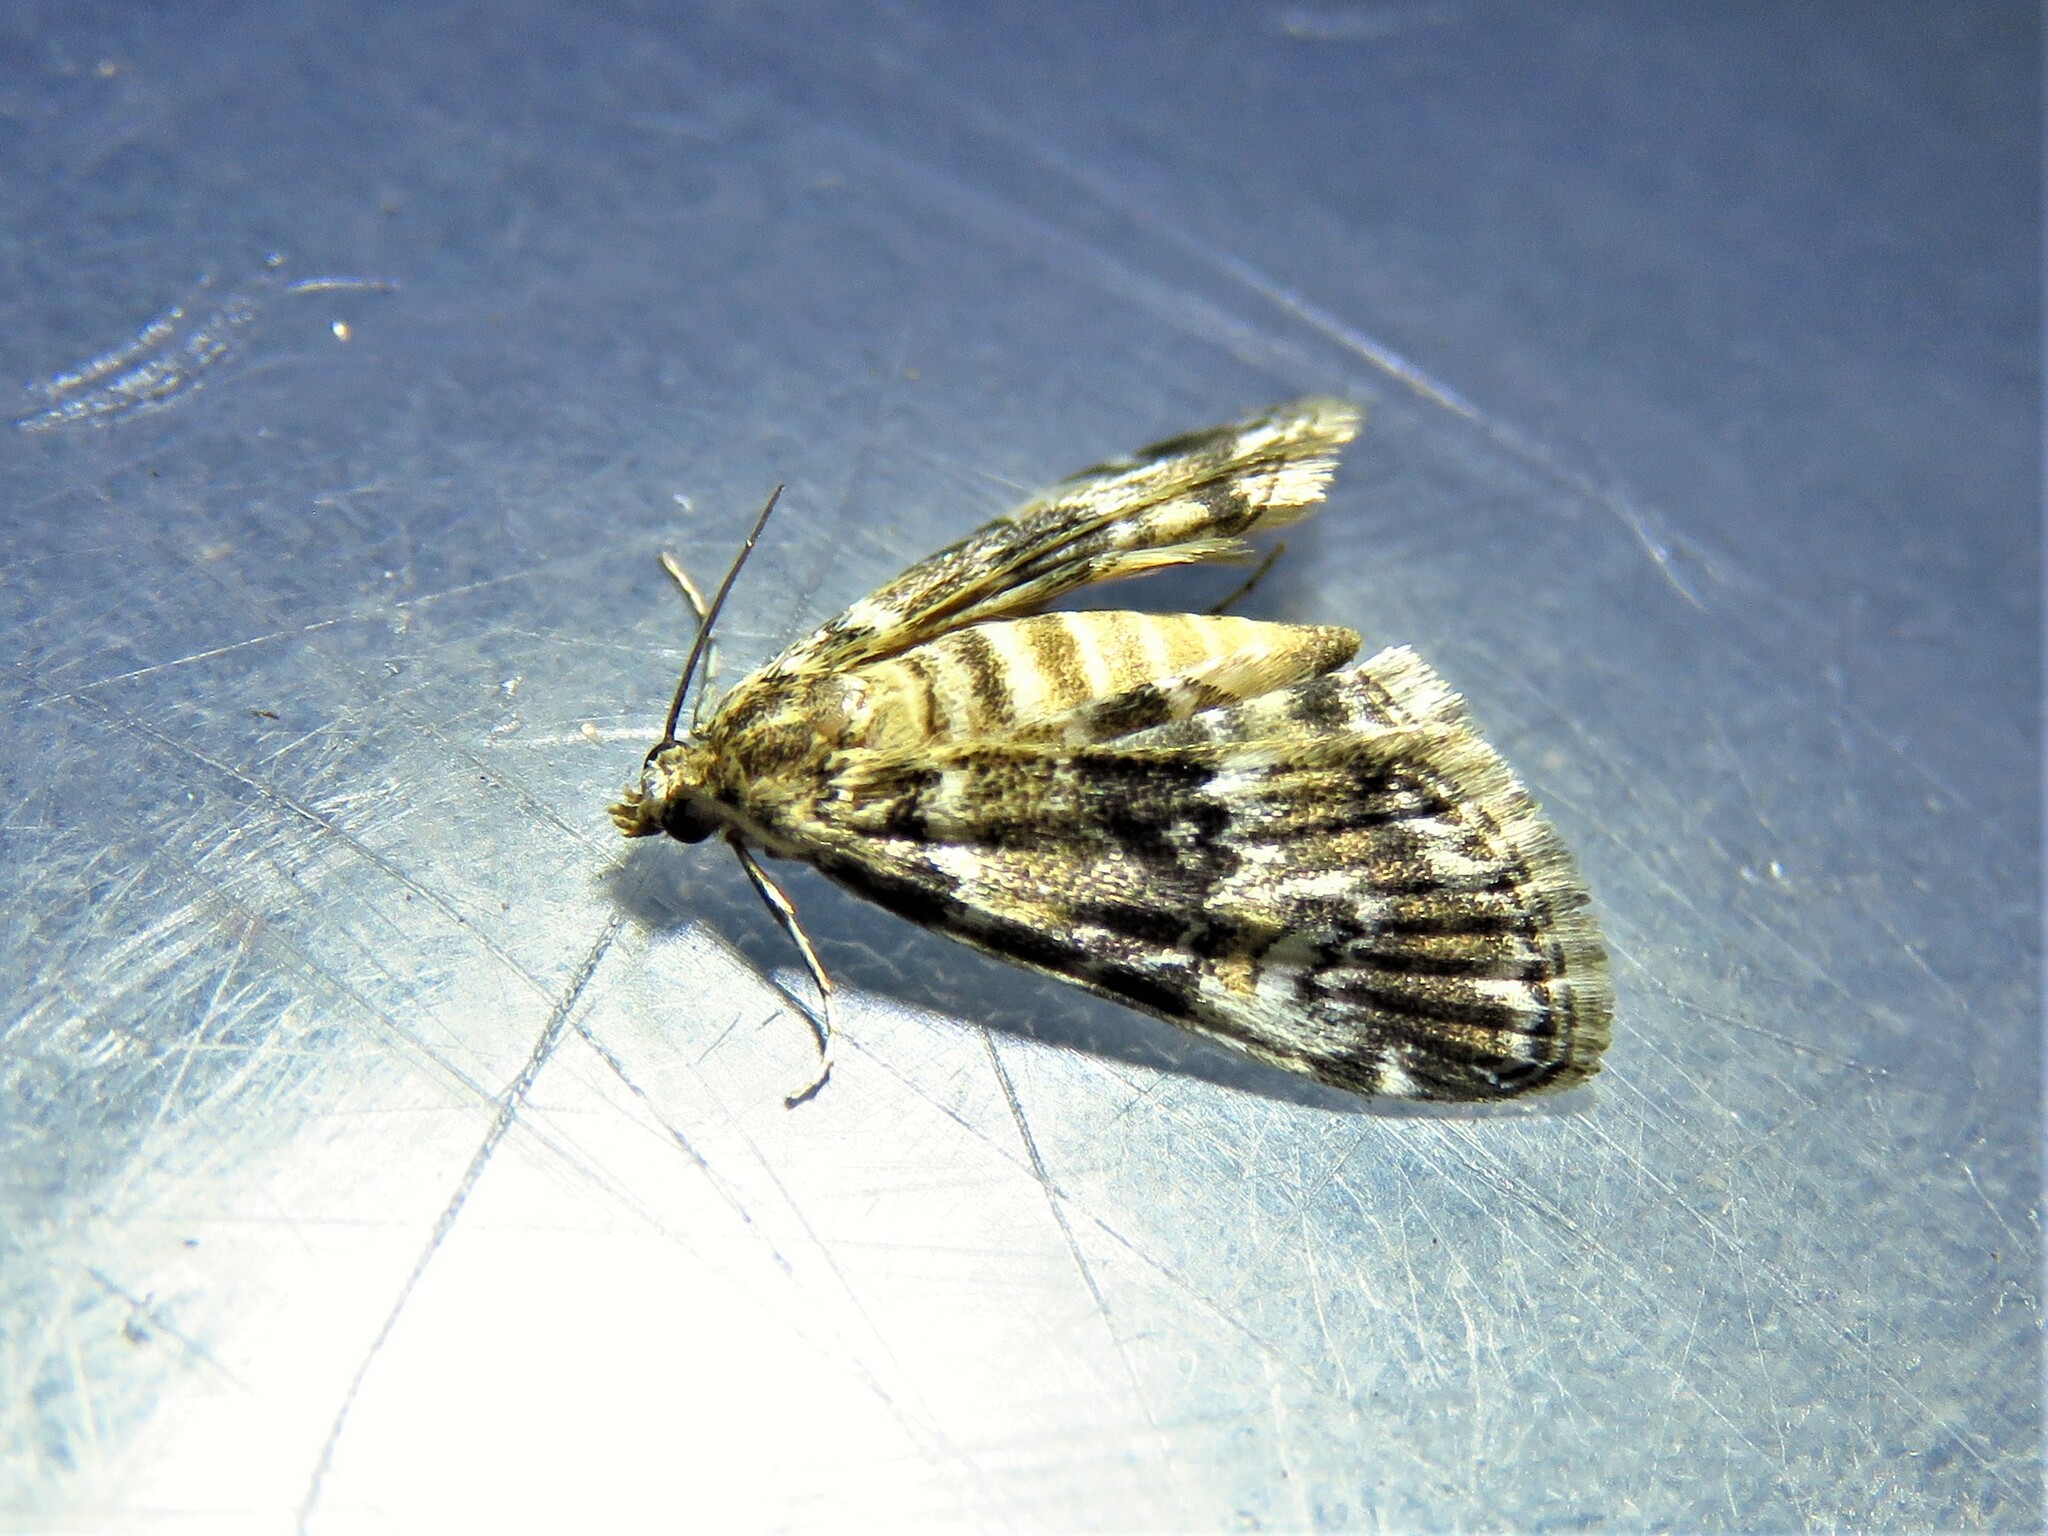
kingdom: Animalia
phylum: Arthropoda
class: Insecta
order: Lepidoptera
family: Crambidae
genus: Elophila
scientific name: Elophila obliteralis
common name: Waterlily leafcutter moth
